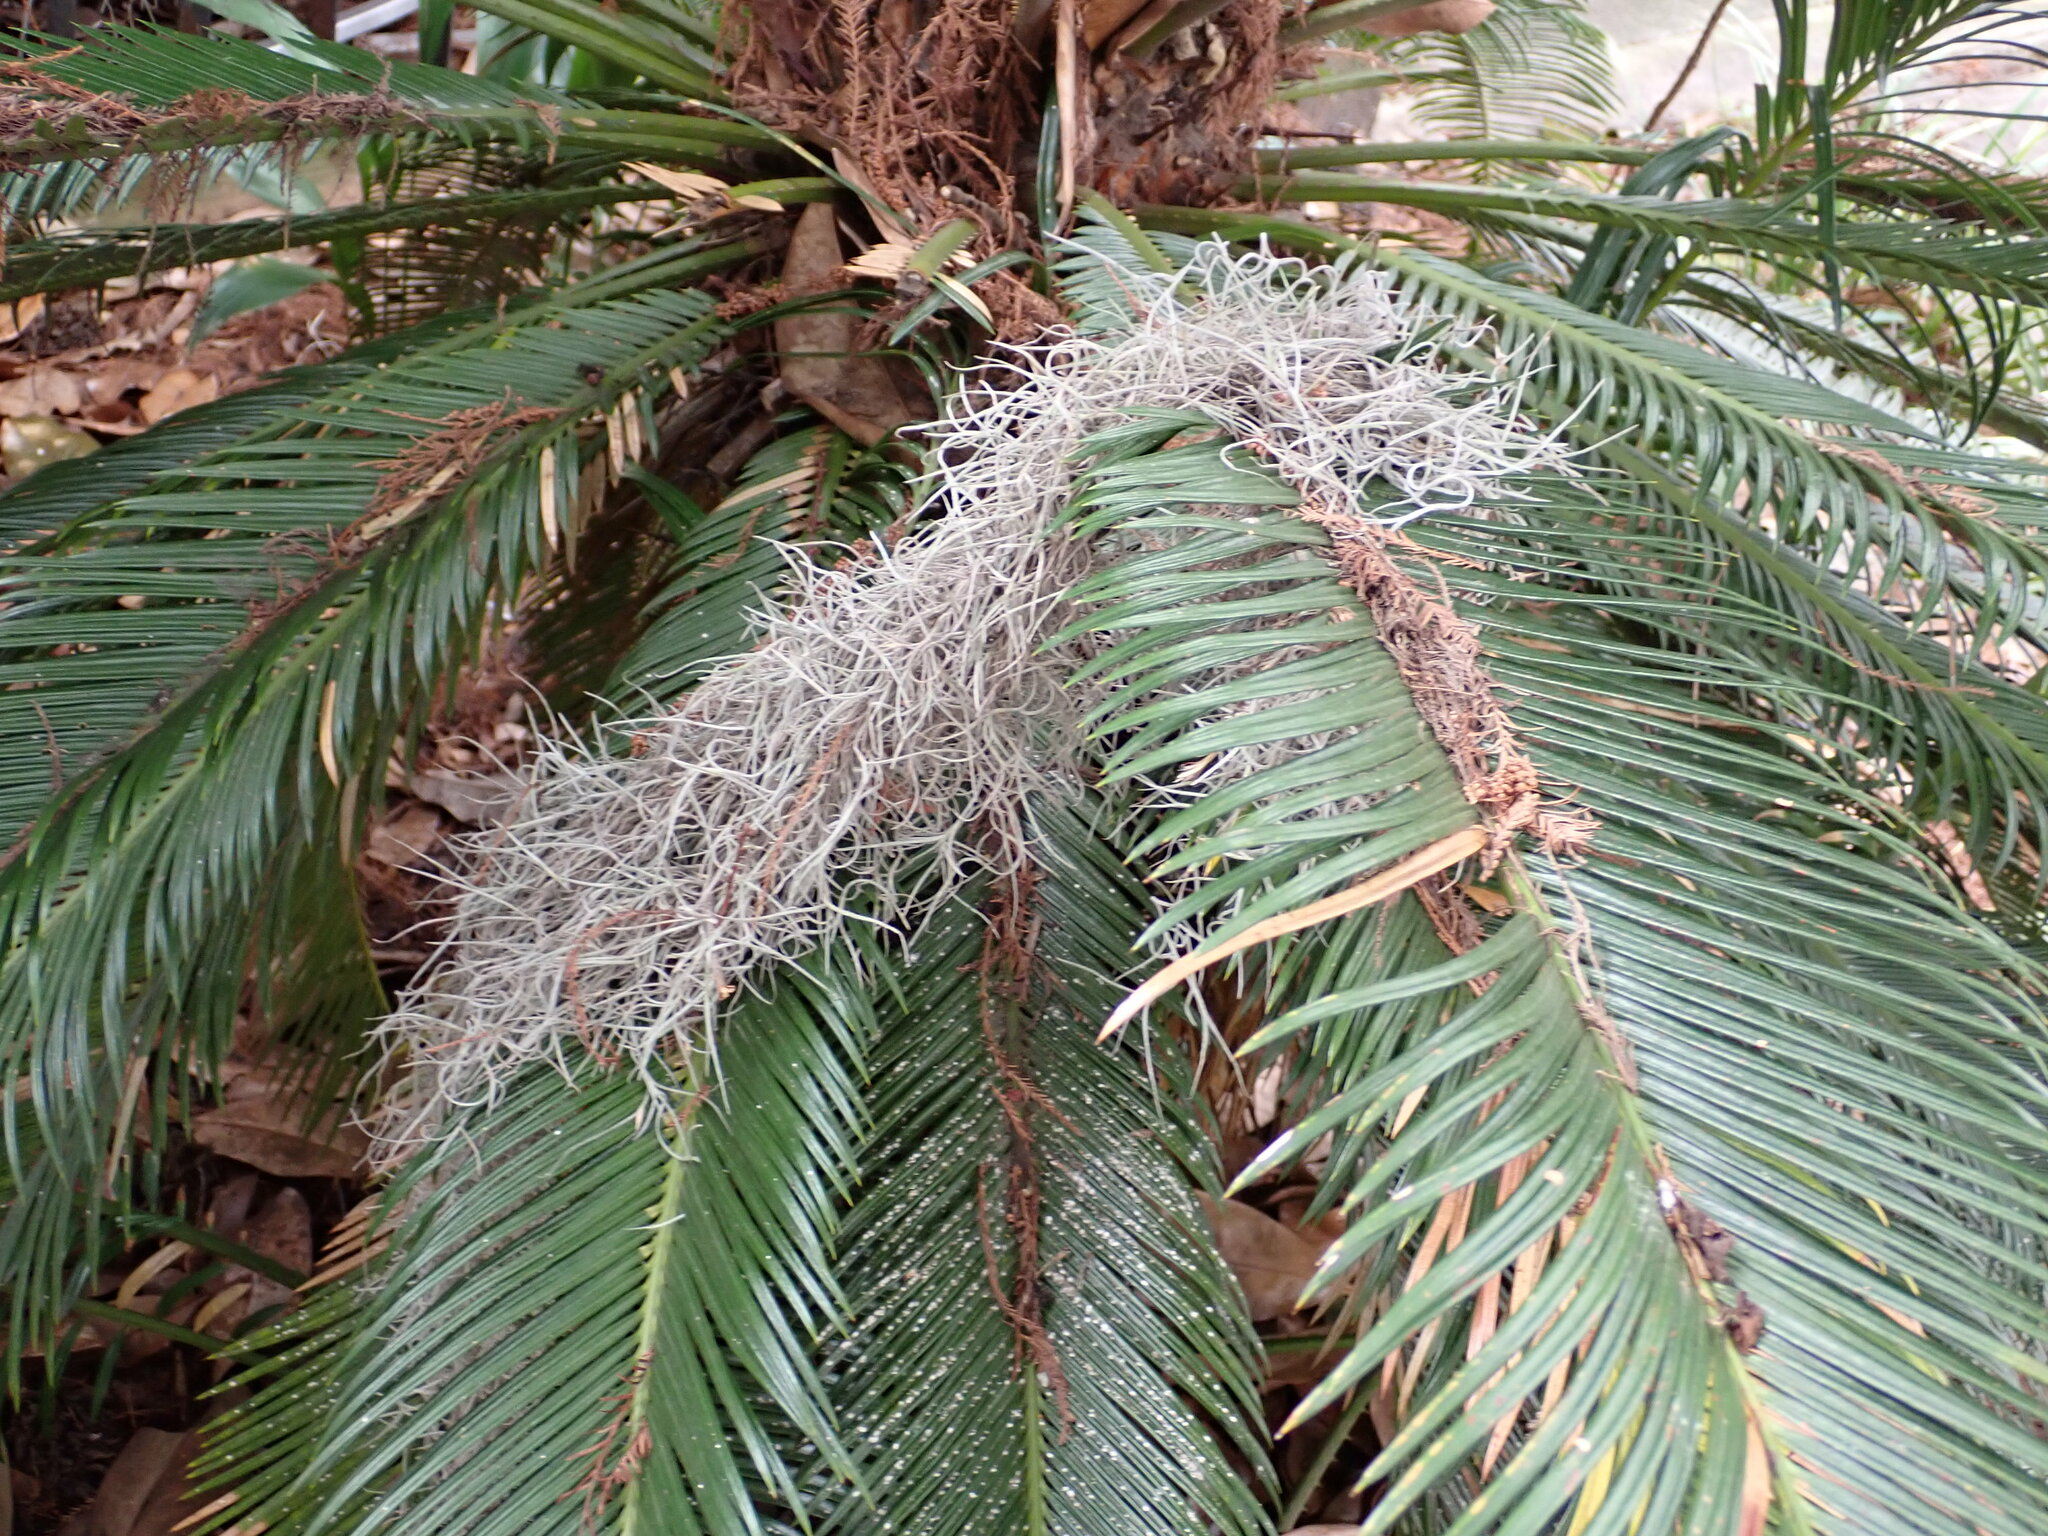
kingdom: Plantae
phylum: Tracheophyta
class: Liliopsida
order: Poales
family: Bromeliaceae
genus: Tillandsia
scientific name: Tillandsia usneoides
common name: Spanish moss
